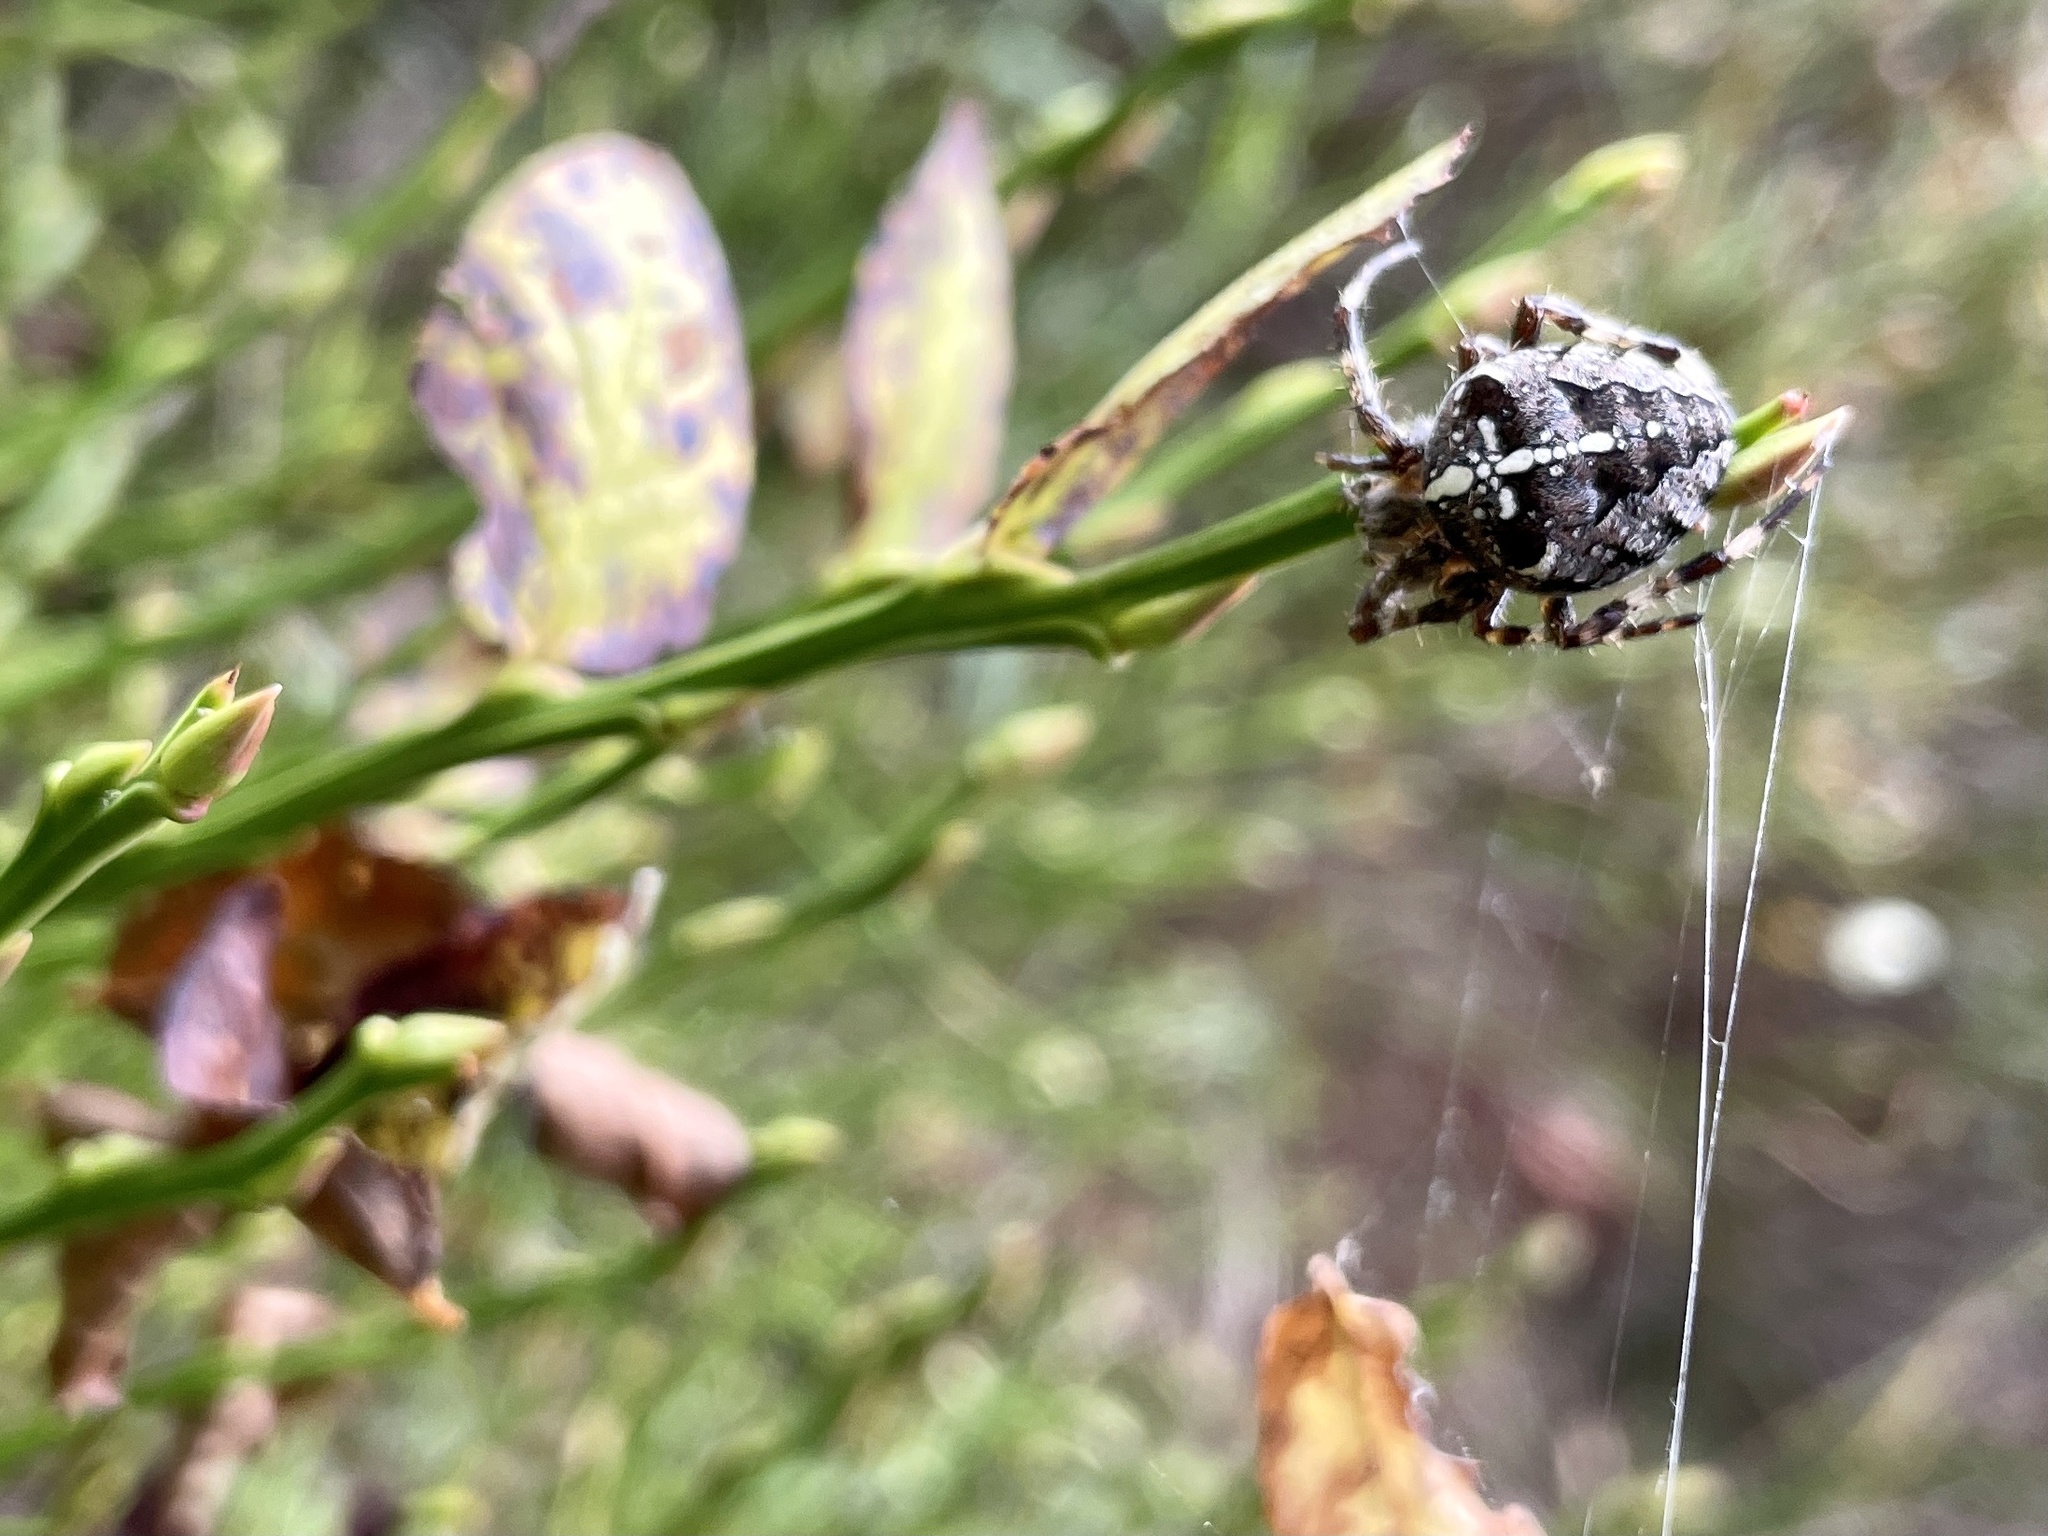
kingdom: Animalia
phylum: Arthropoda
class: Arachnida
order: Araneae
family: Araneidae
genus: Araneus
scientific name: Araneus diadematus
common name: Cross orbweaver
